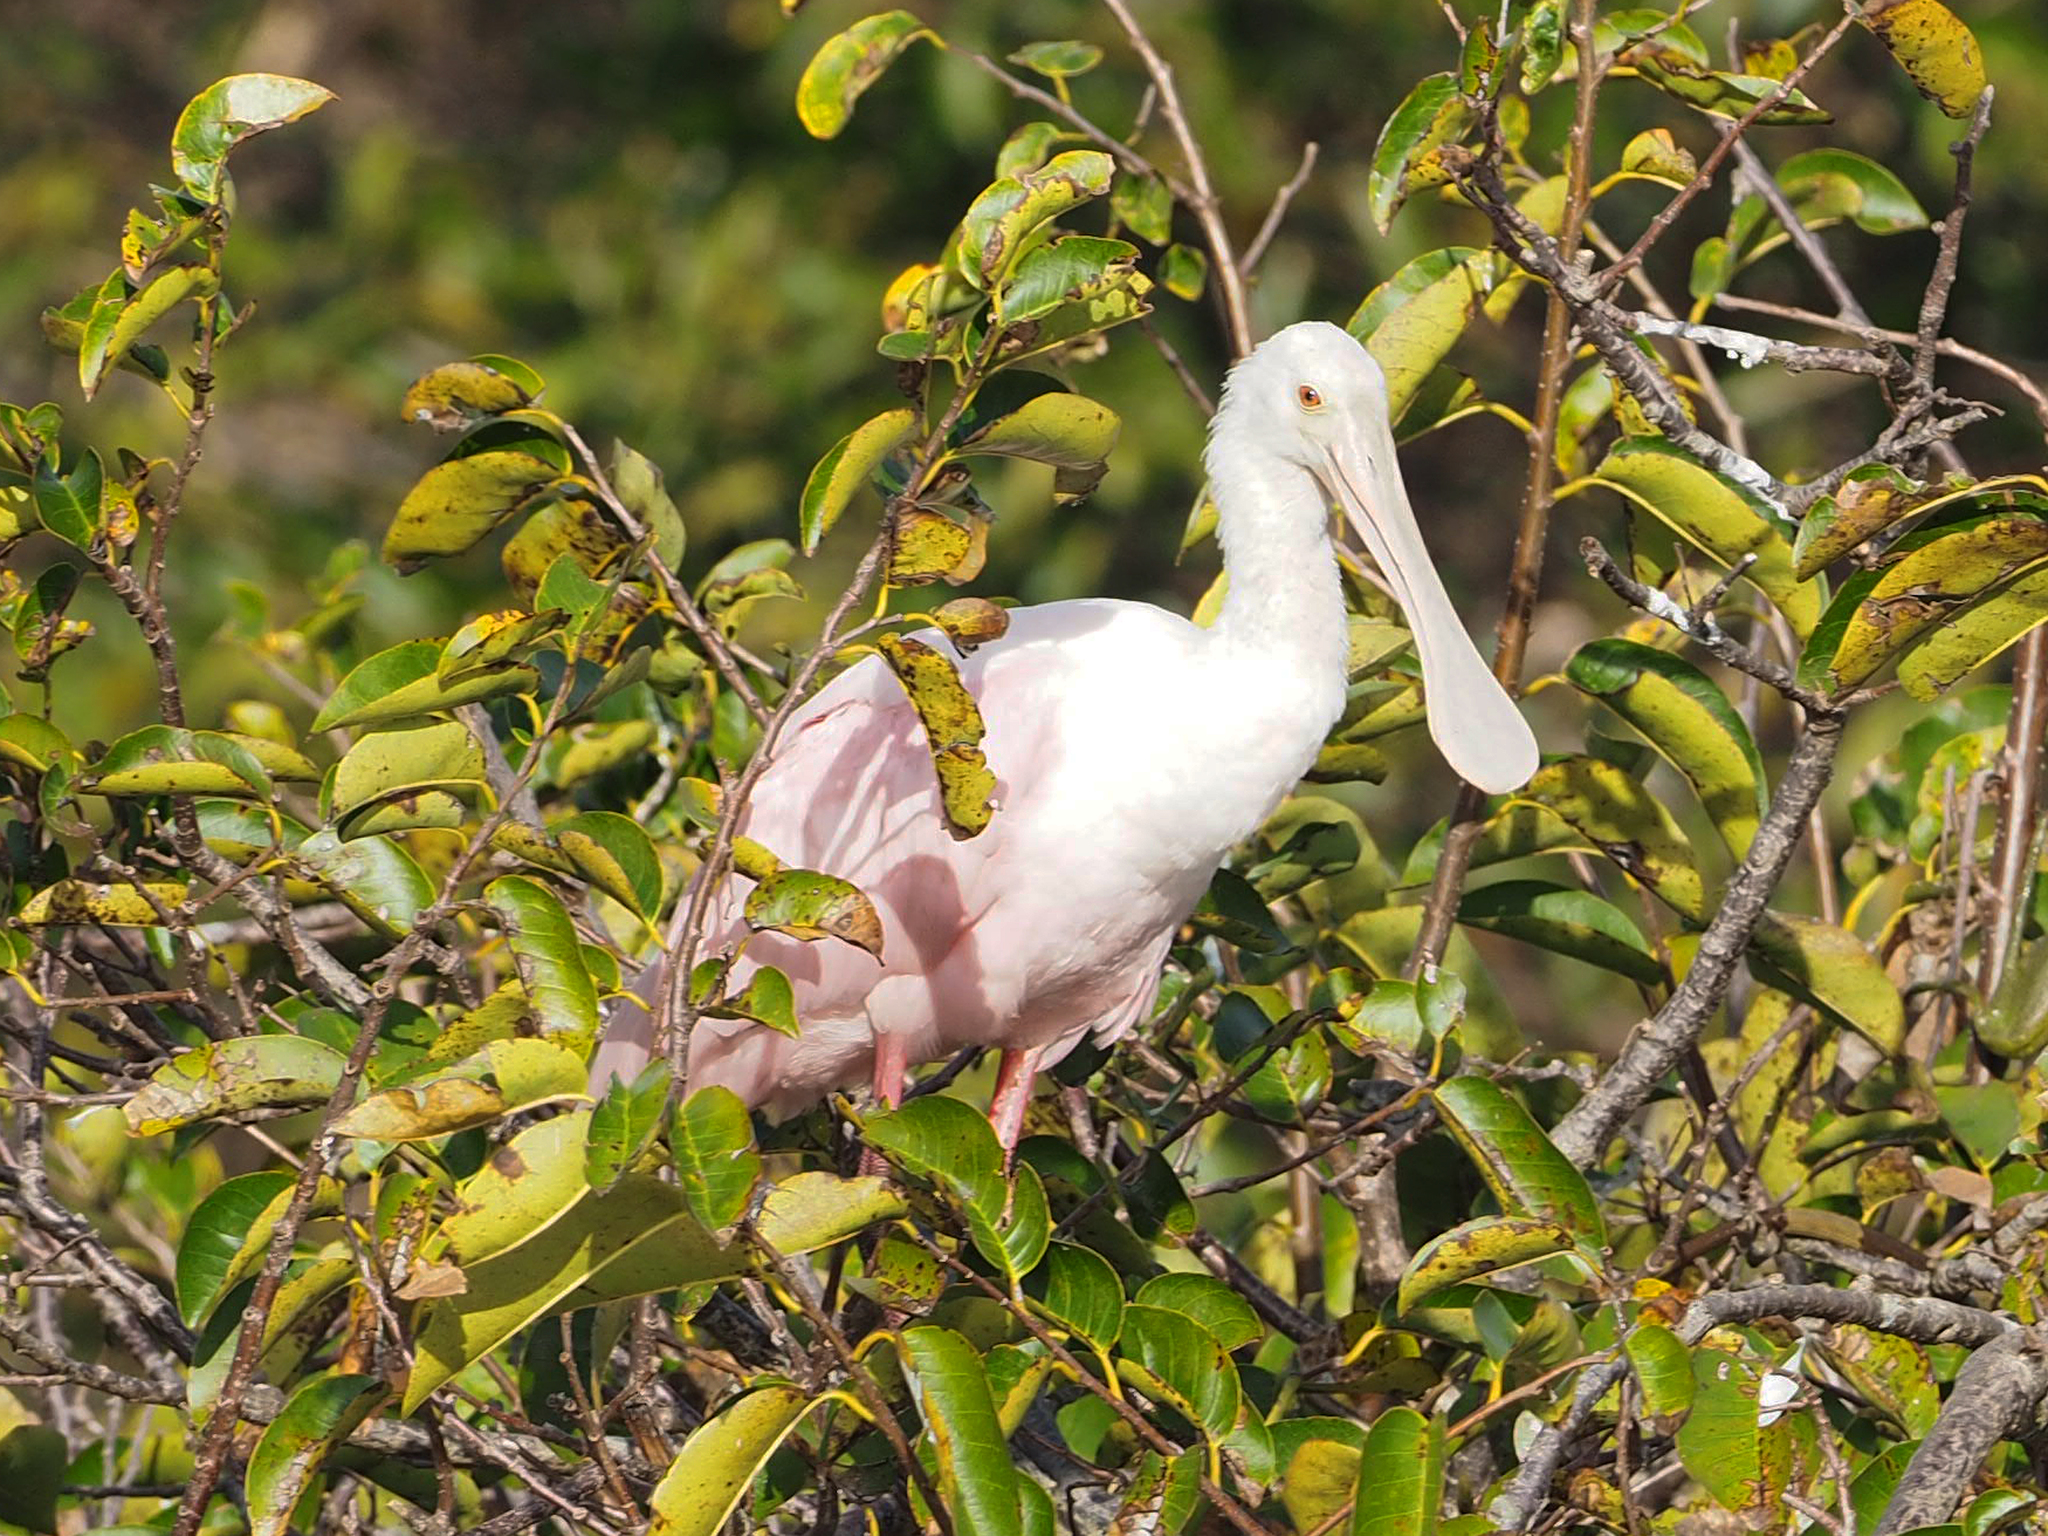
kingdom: Animalia
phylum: Chordata
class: Aves
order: Pelecaniformes
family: Threskiornithidae
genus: Platalea
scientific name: Platalea ajaja
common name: Roseate spoonbill
